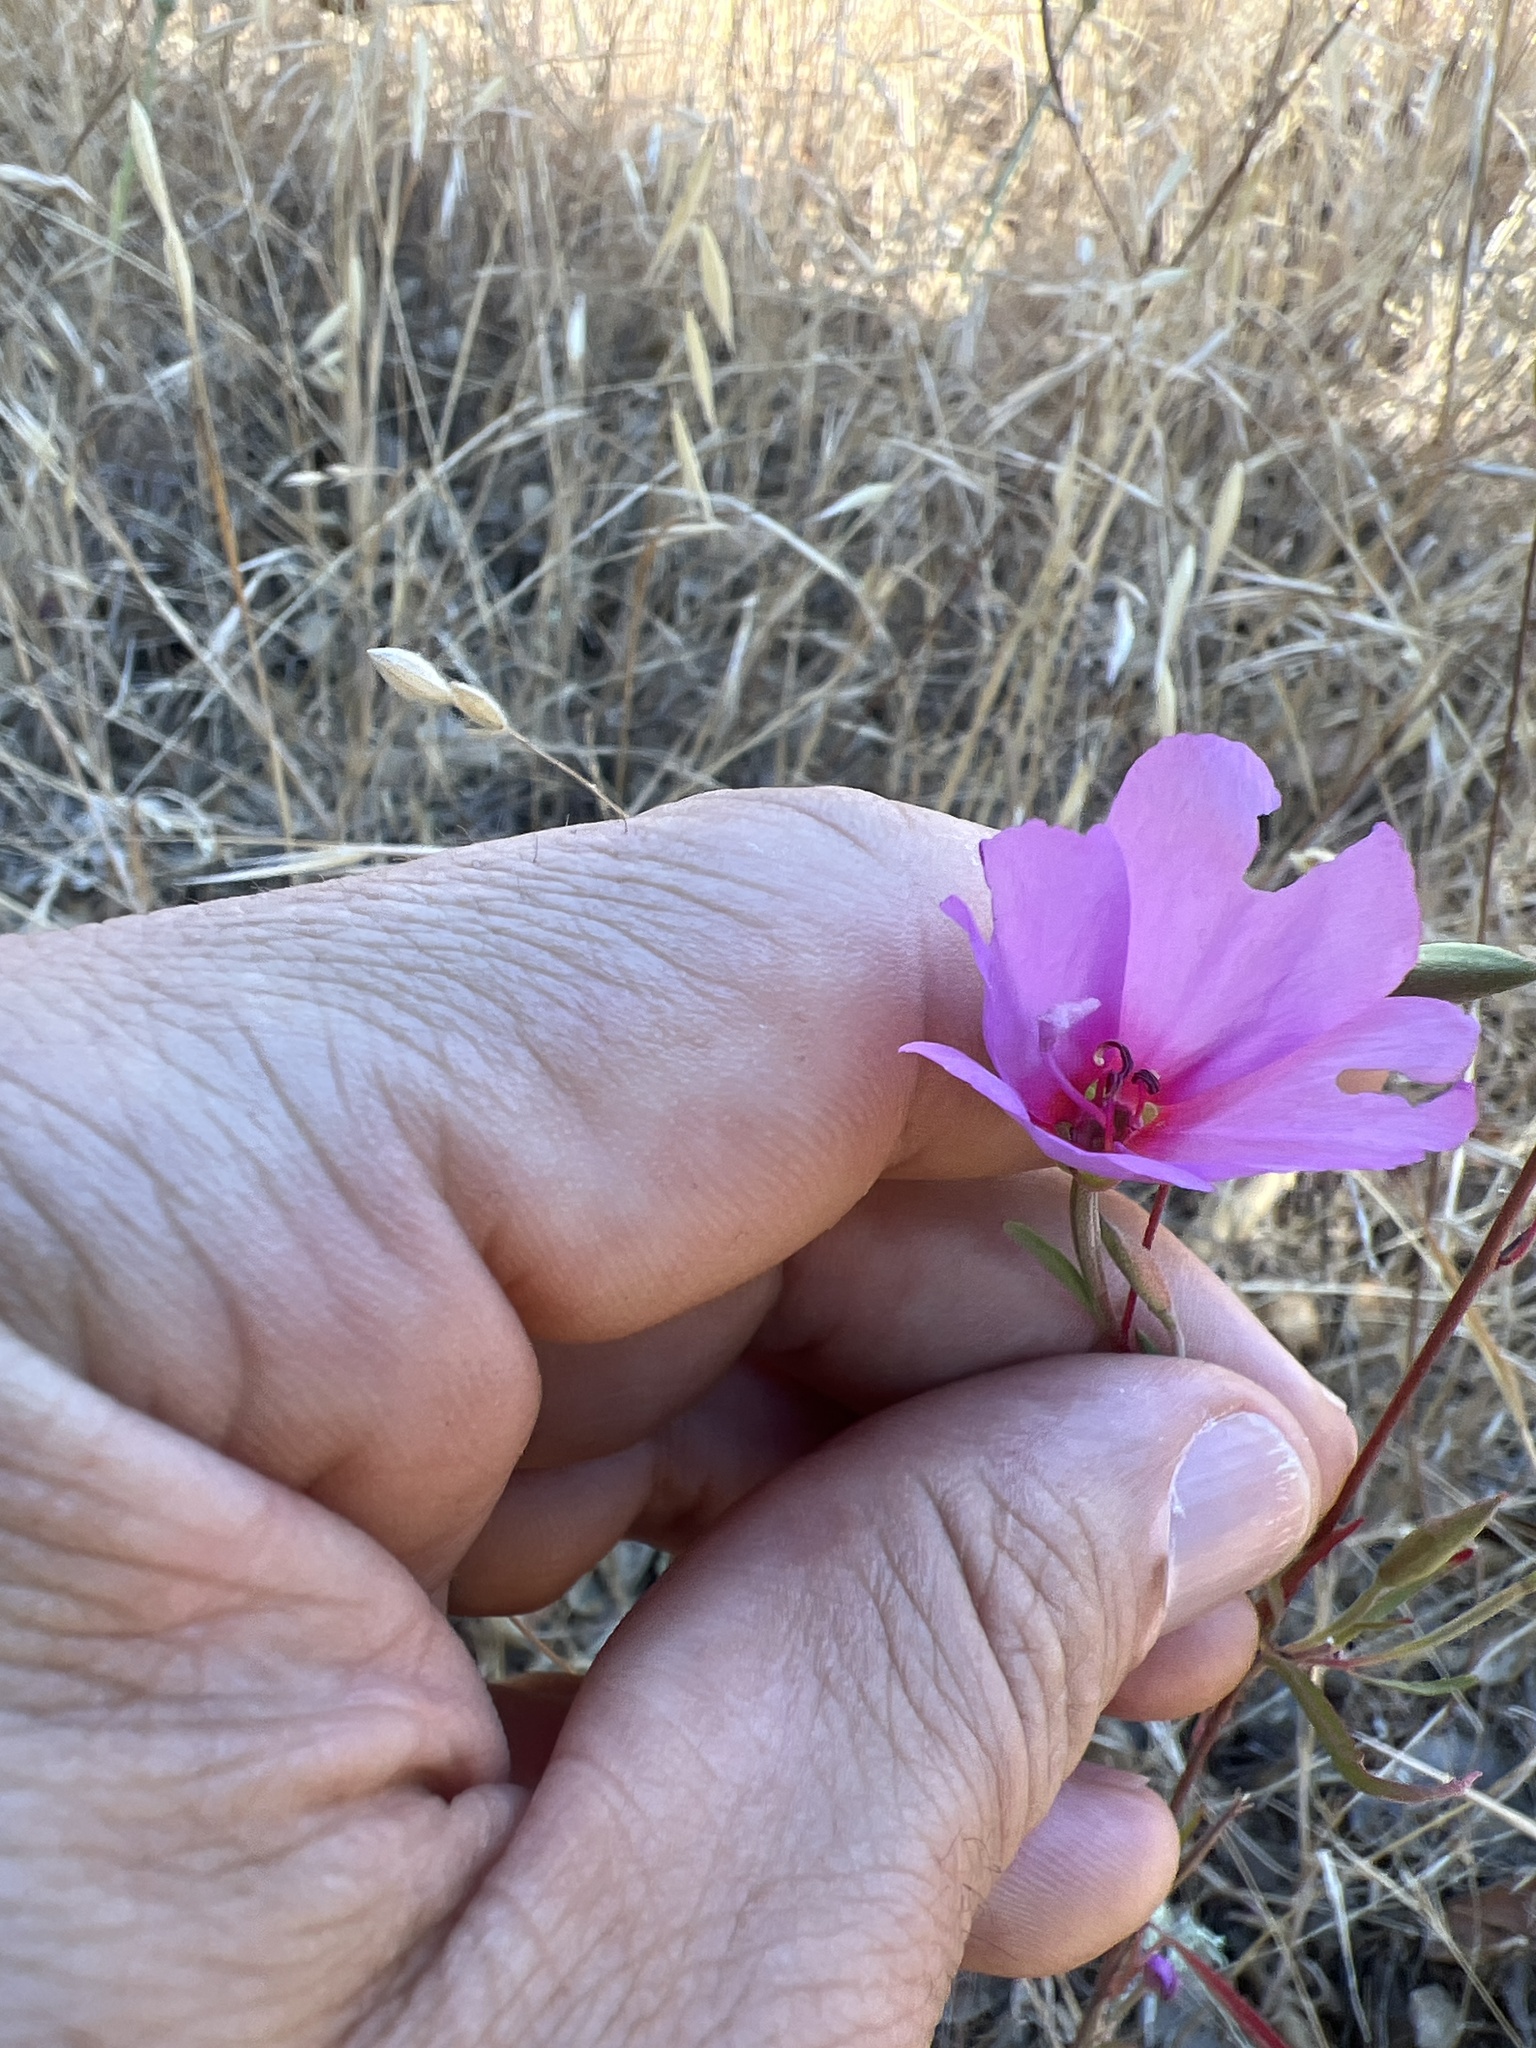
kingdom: Plantae
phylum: Tracheophyta
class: Magnoliopsida
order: Myrtales
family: Onagraceae
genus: Clarkia
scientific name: Clarkia rubicunda
